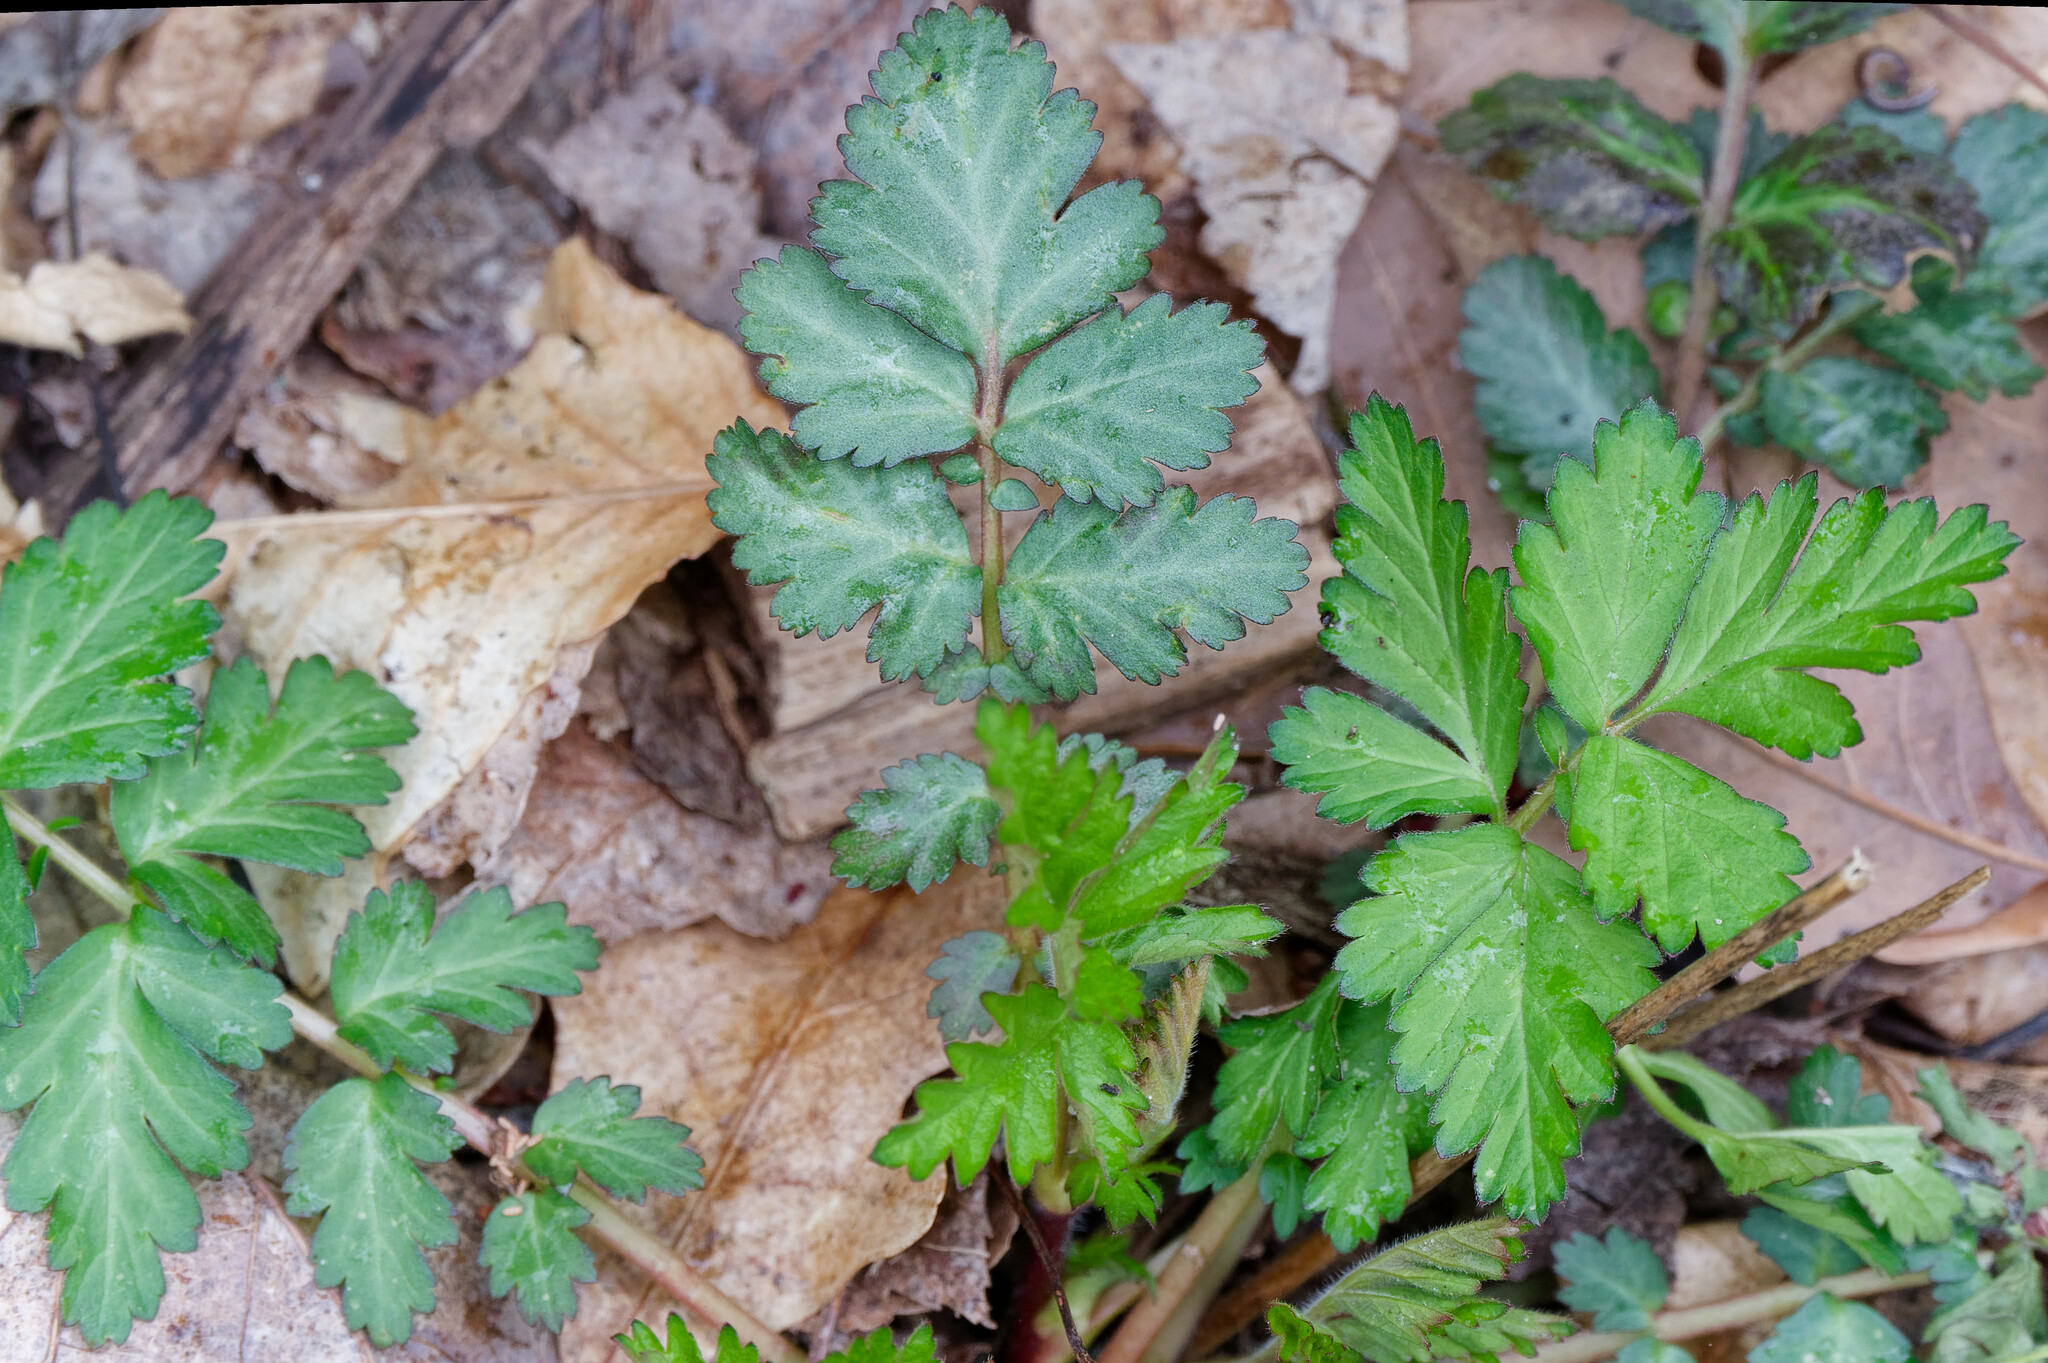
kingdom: Plantae
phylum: Tracheophyta
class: Magnoliopsida
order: Rosales
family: Rosaceae
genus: Geum
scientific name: Geum canadense
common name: White avens
